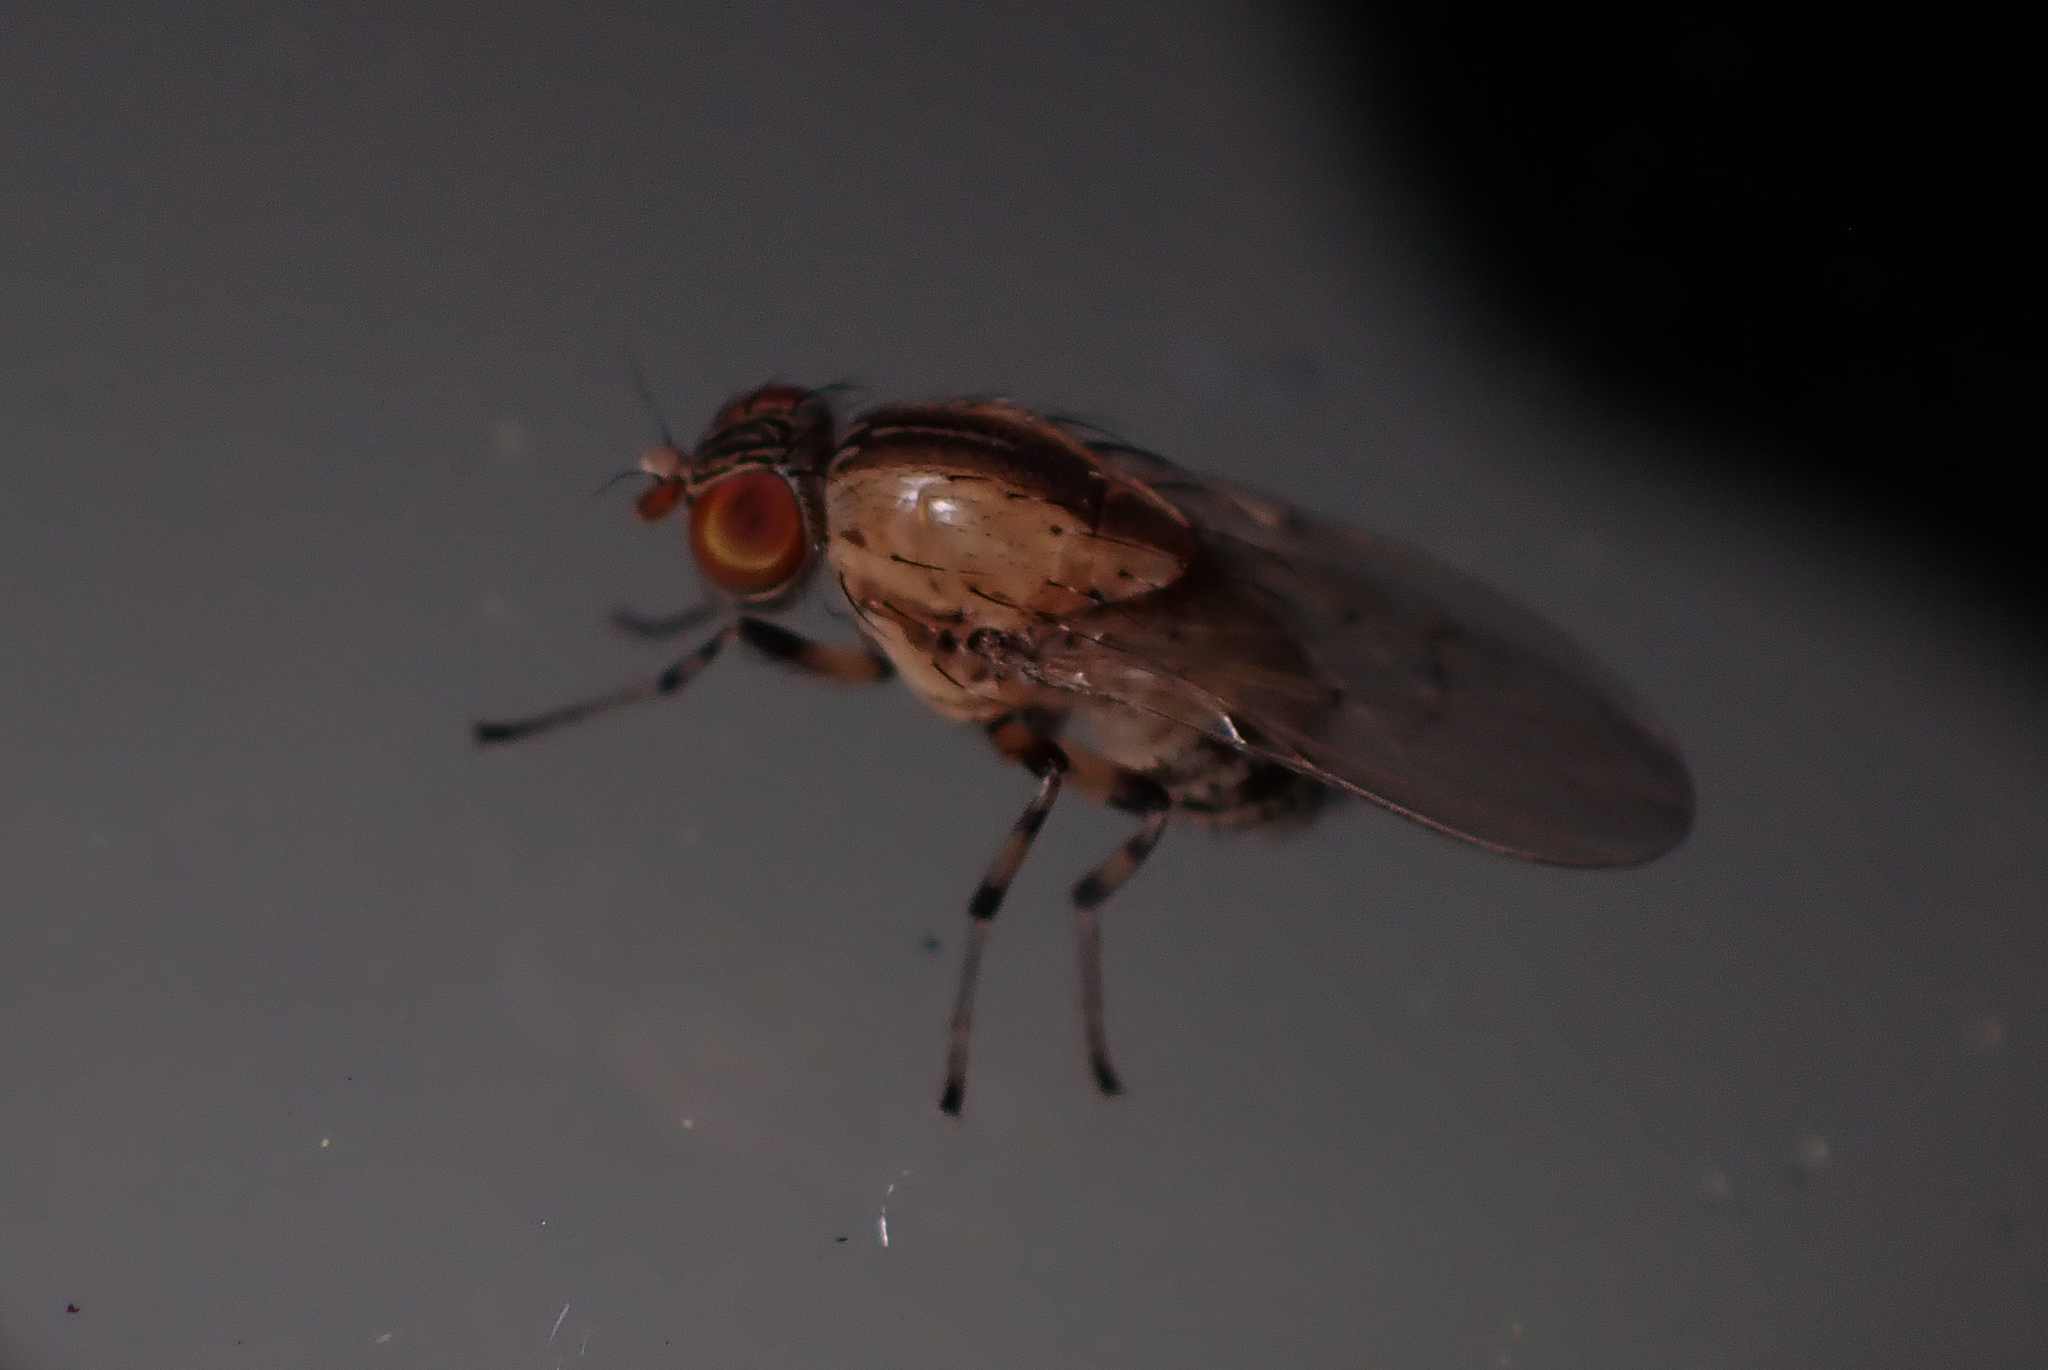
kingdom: Animalia
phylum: Arthropoda
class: Insecta
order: Diptera
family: Lauxaniidae
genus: Sapromyza
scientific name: Sapromyza neozelandica
